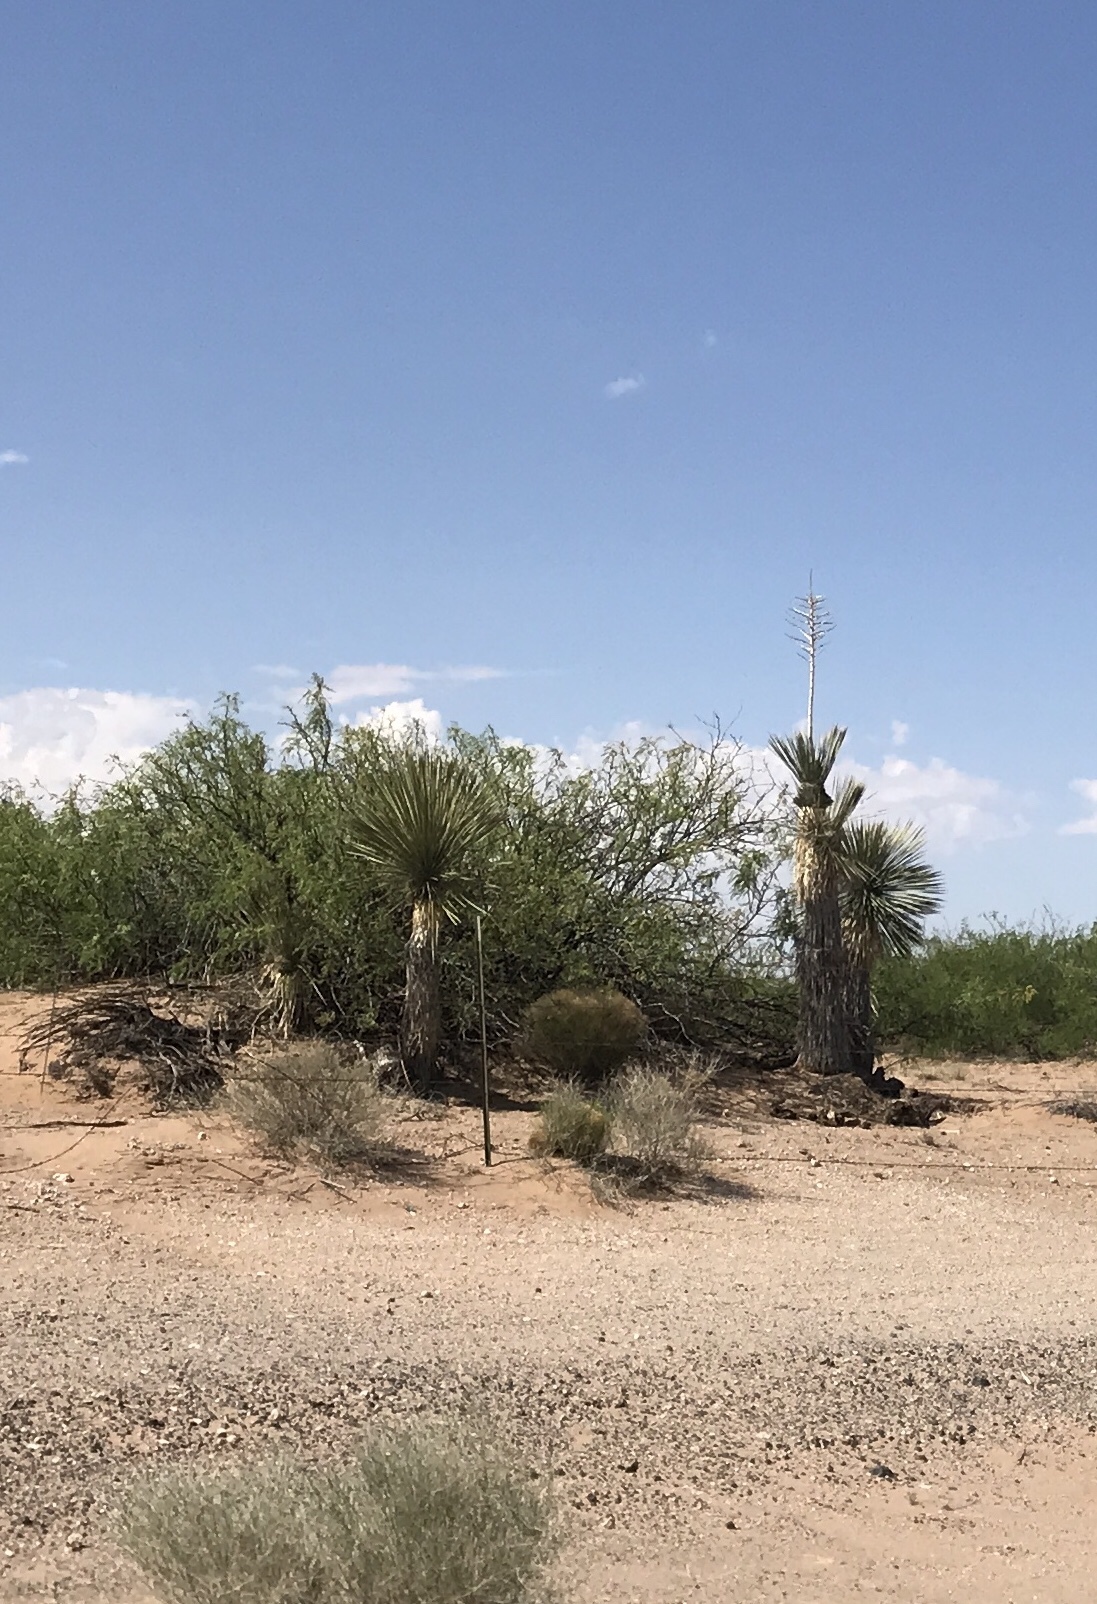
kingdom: Plantae
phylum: Tracheophyta
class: Liliopsida
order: Asparagales
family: Asparagaceae
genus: Yucca
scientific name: Yucca elata
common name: Palmella
